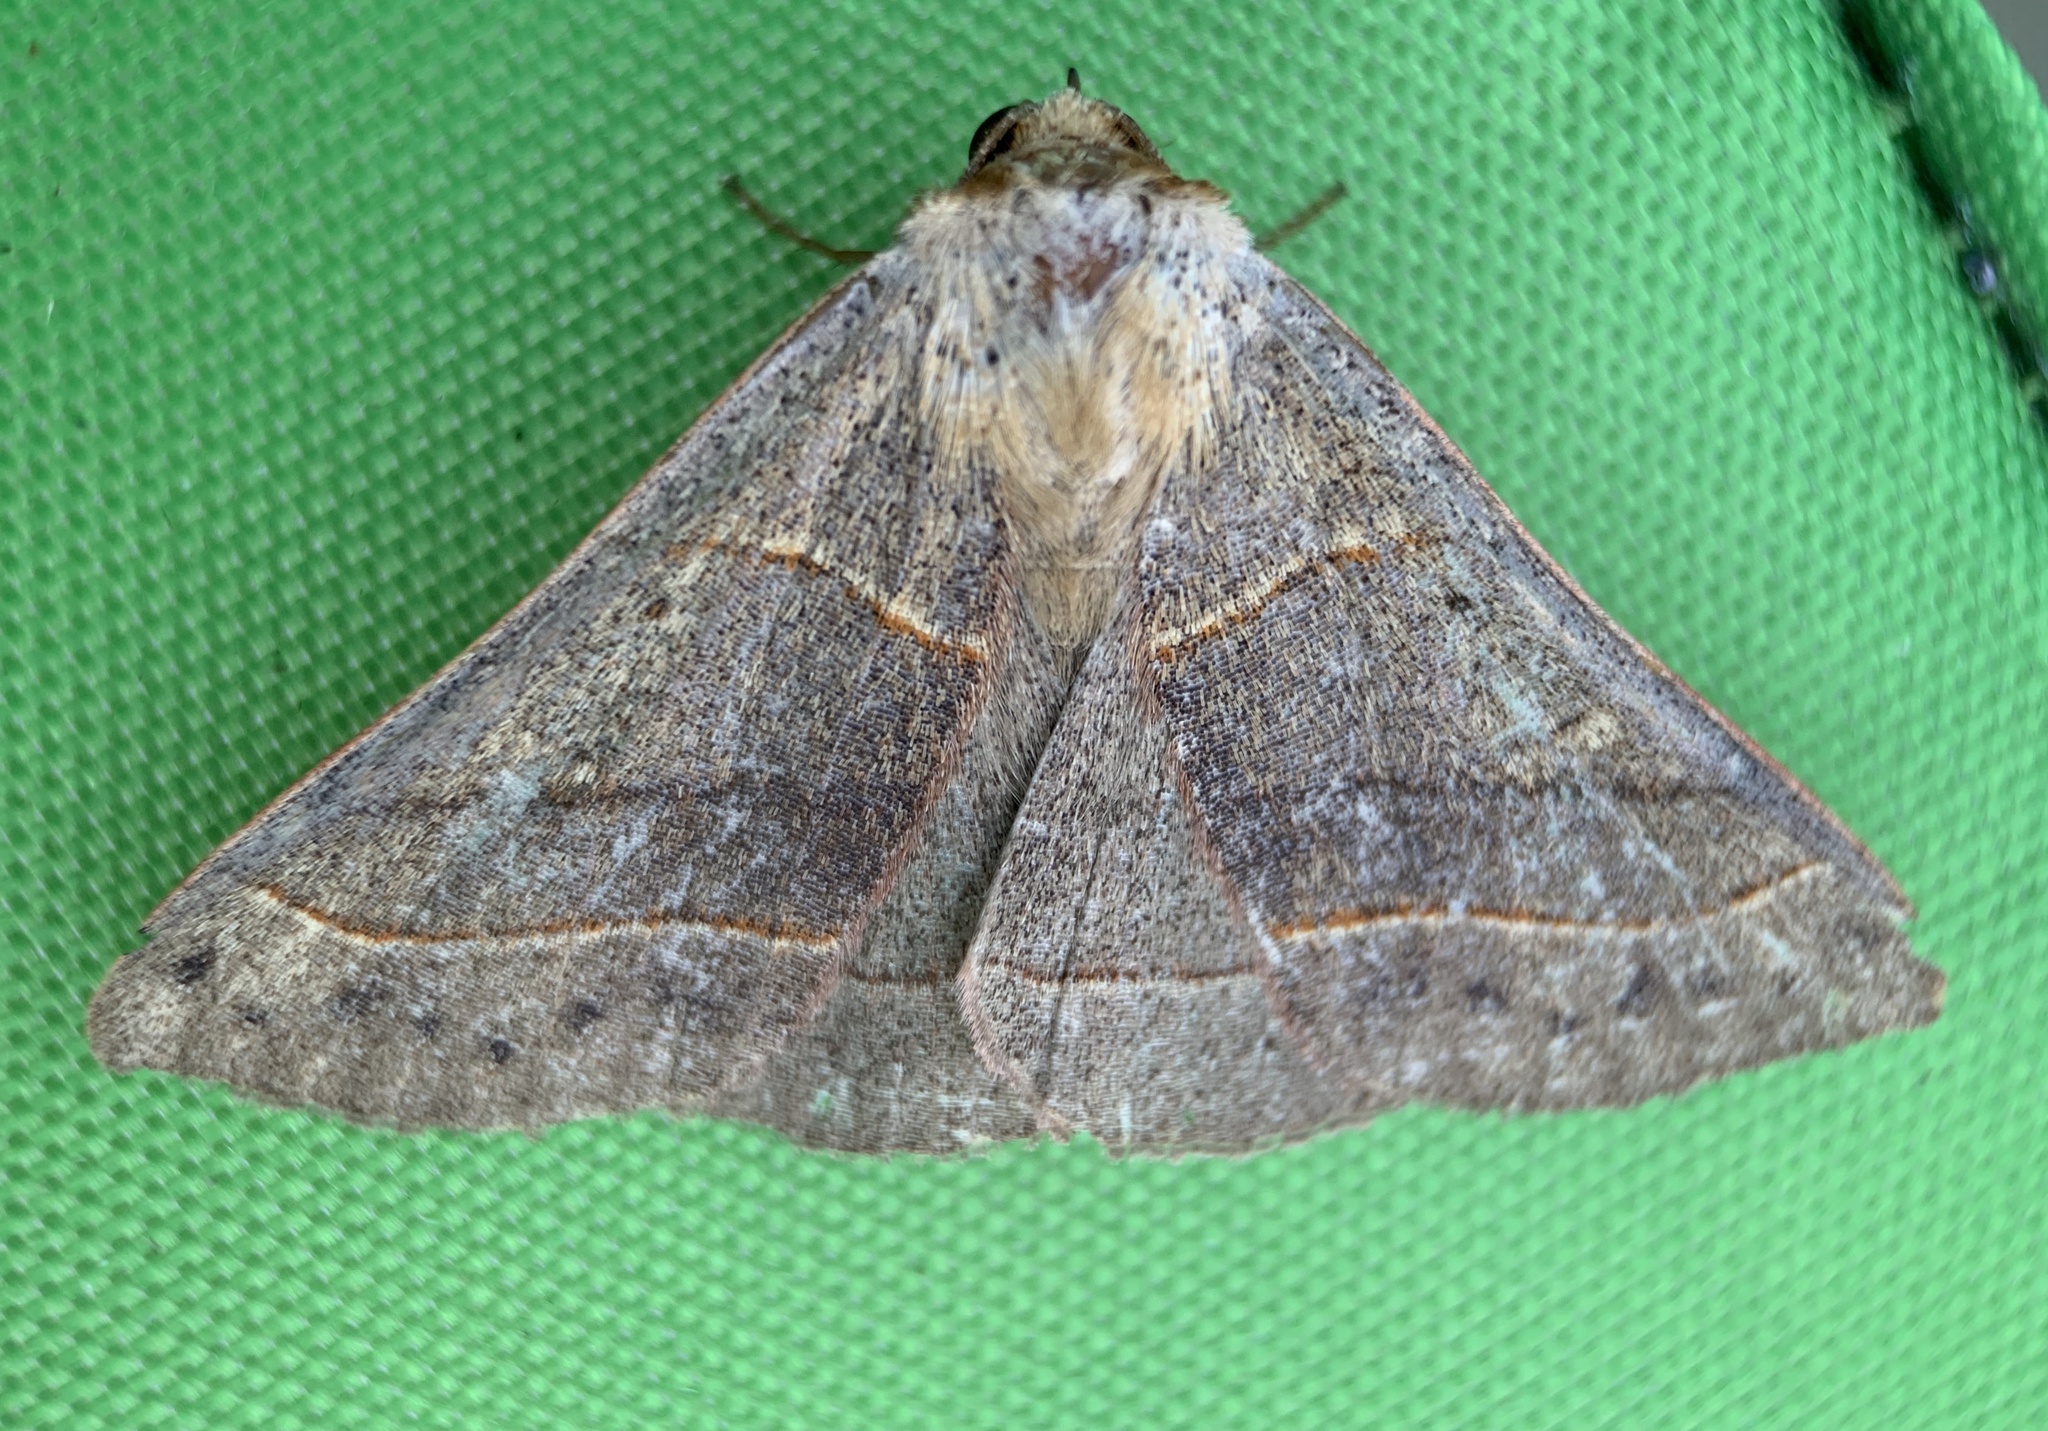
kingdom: Animalia
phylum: Arthropoda
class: Insecta
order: Lepidoptera
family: Erebidae
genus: Panopoda
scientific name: Panopoda rufimargo
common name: Red-lined panopoda moth
